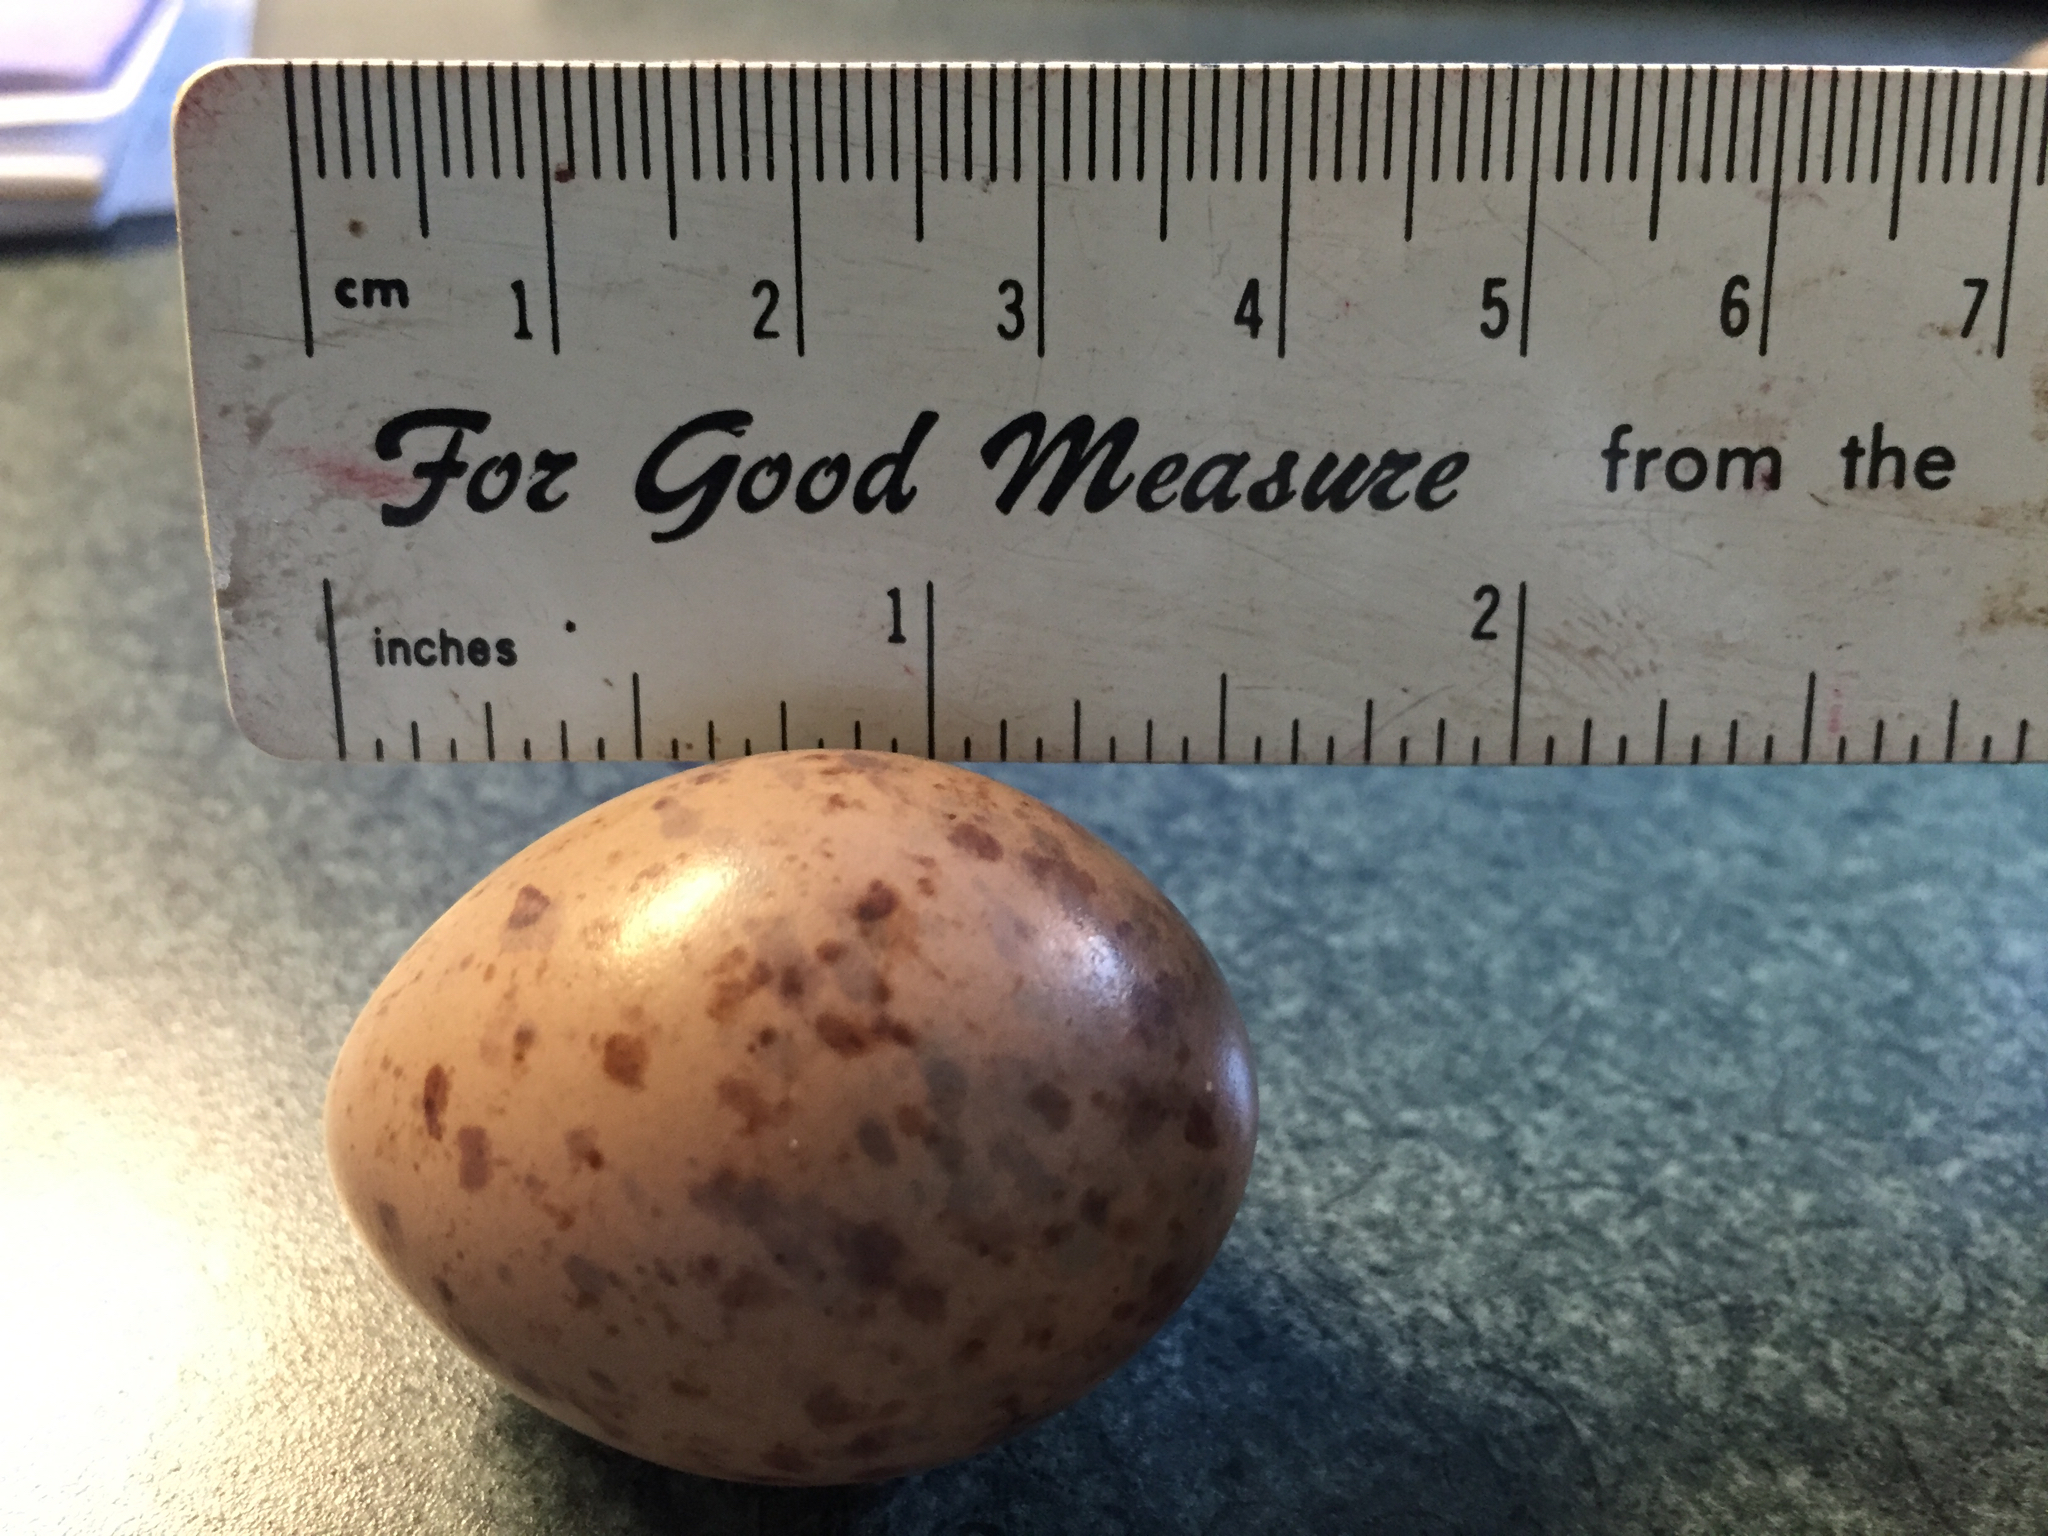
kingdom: Animalia
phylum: Chordata
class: Aves
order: Charadriiformes
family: Scolopacidae
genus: Scolopax
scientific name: Scolopax minor
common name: American woodcock
